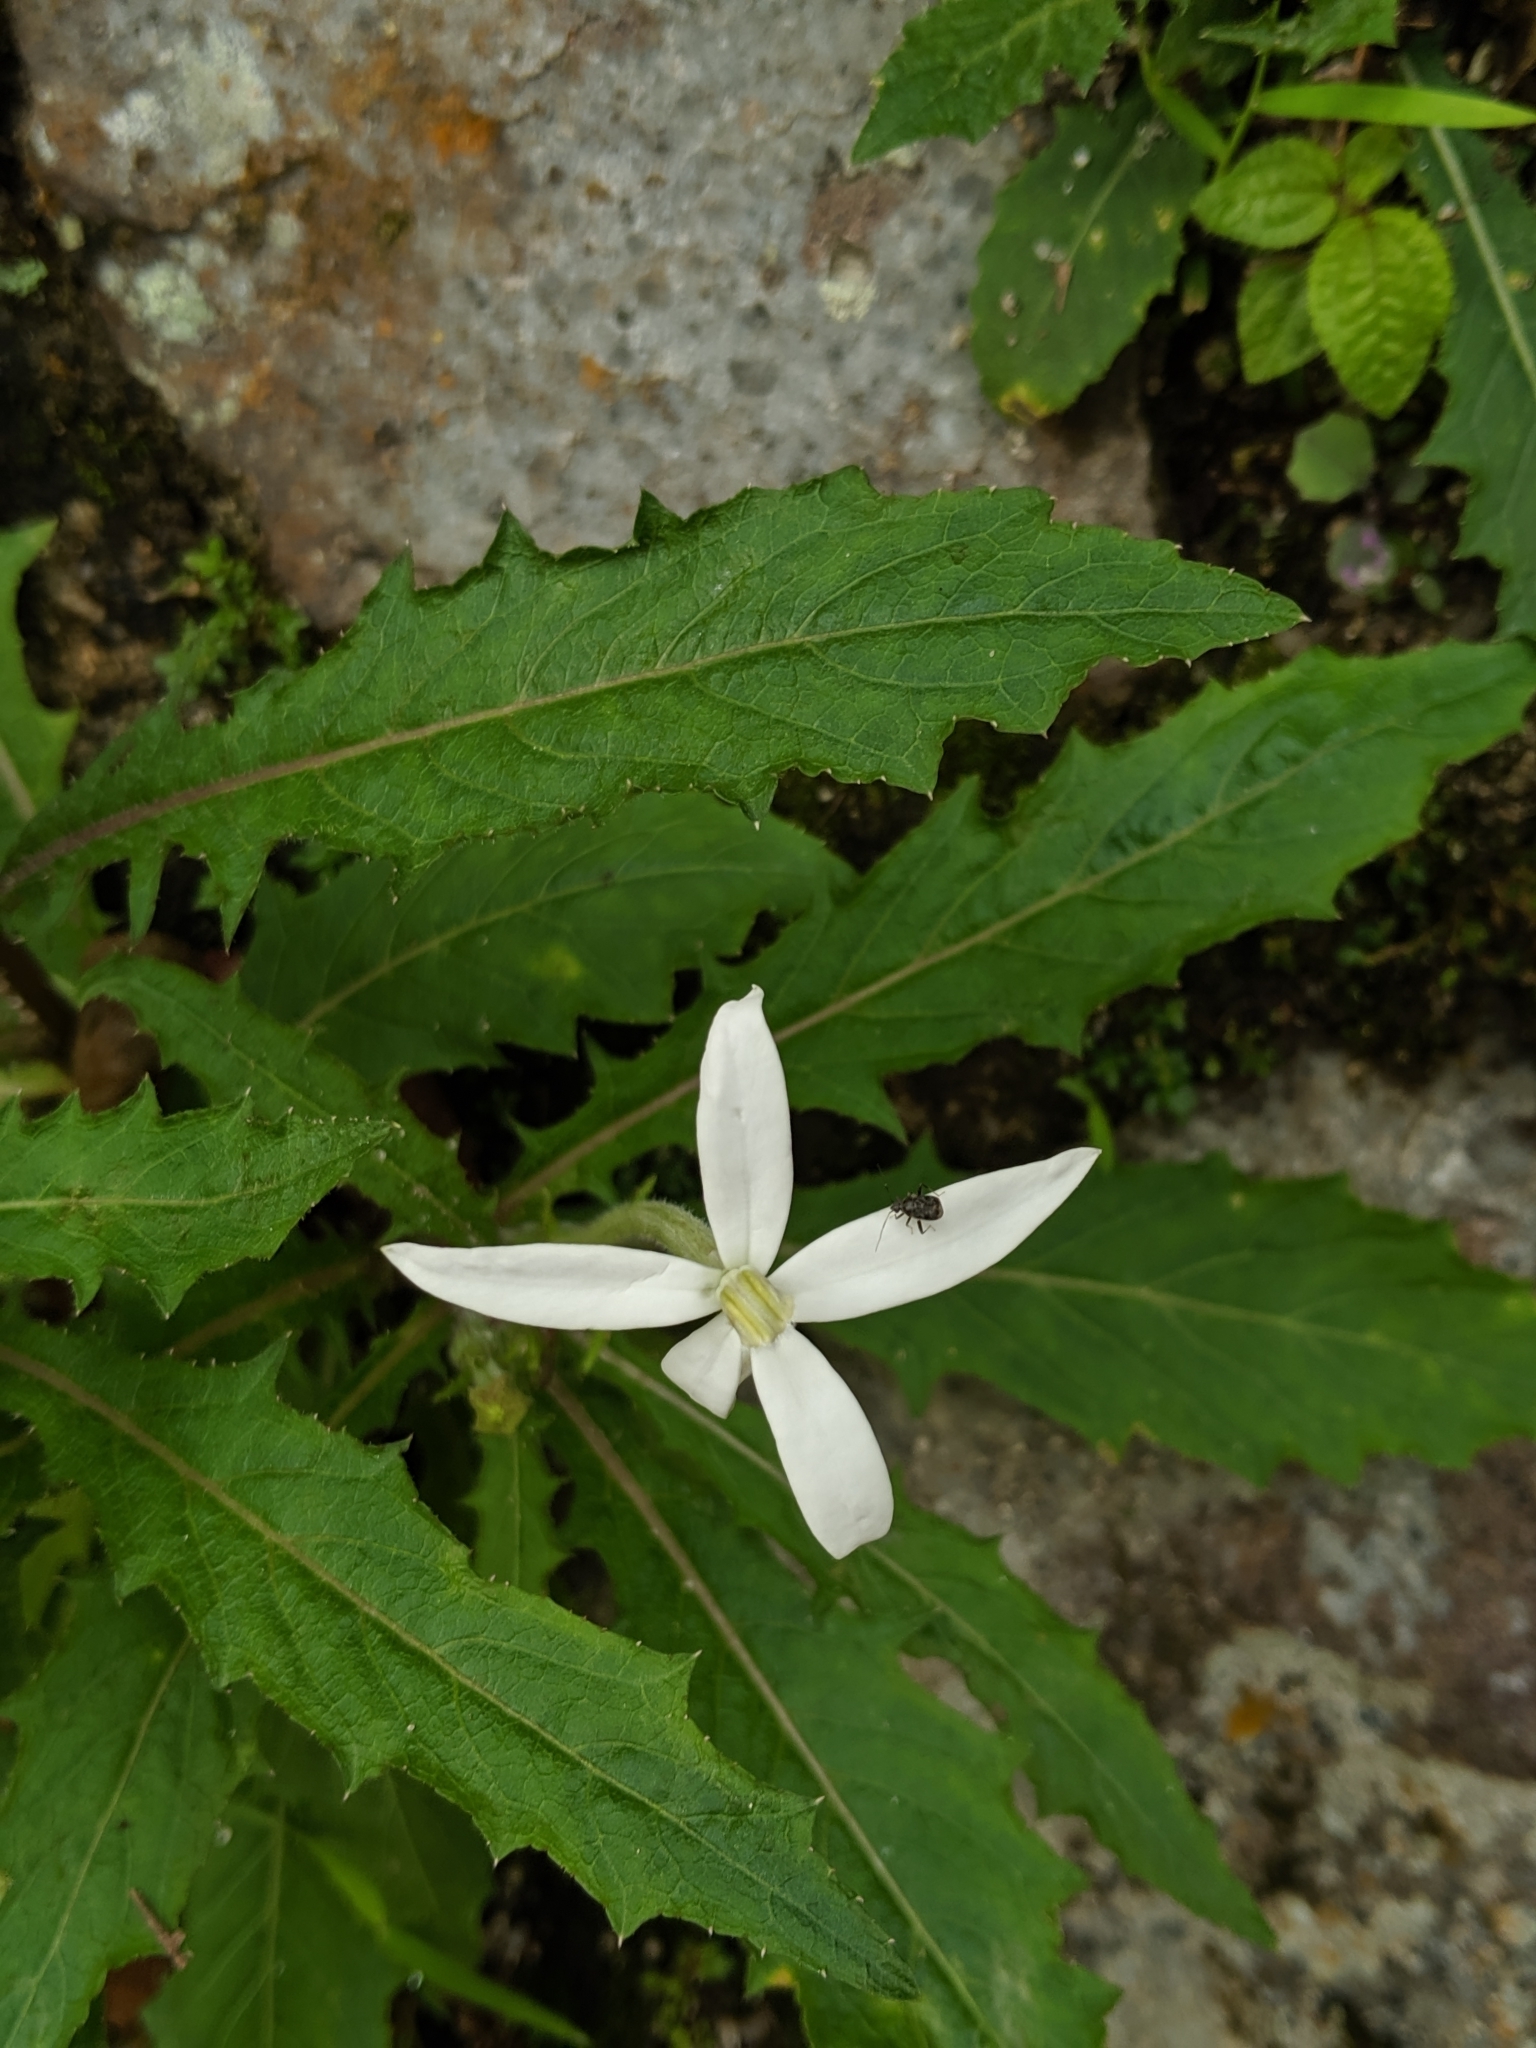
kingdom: Plantae
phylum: Tracheophyta
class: Magnoliopsida
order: Asterales
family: Campanulaceae
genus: Hippobroma
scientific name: Hippobroma longiflora
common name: Madamfate
